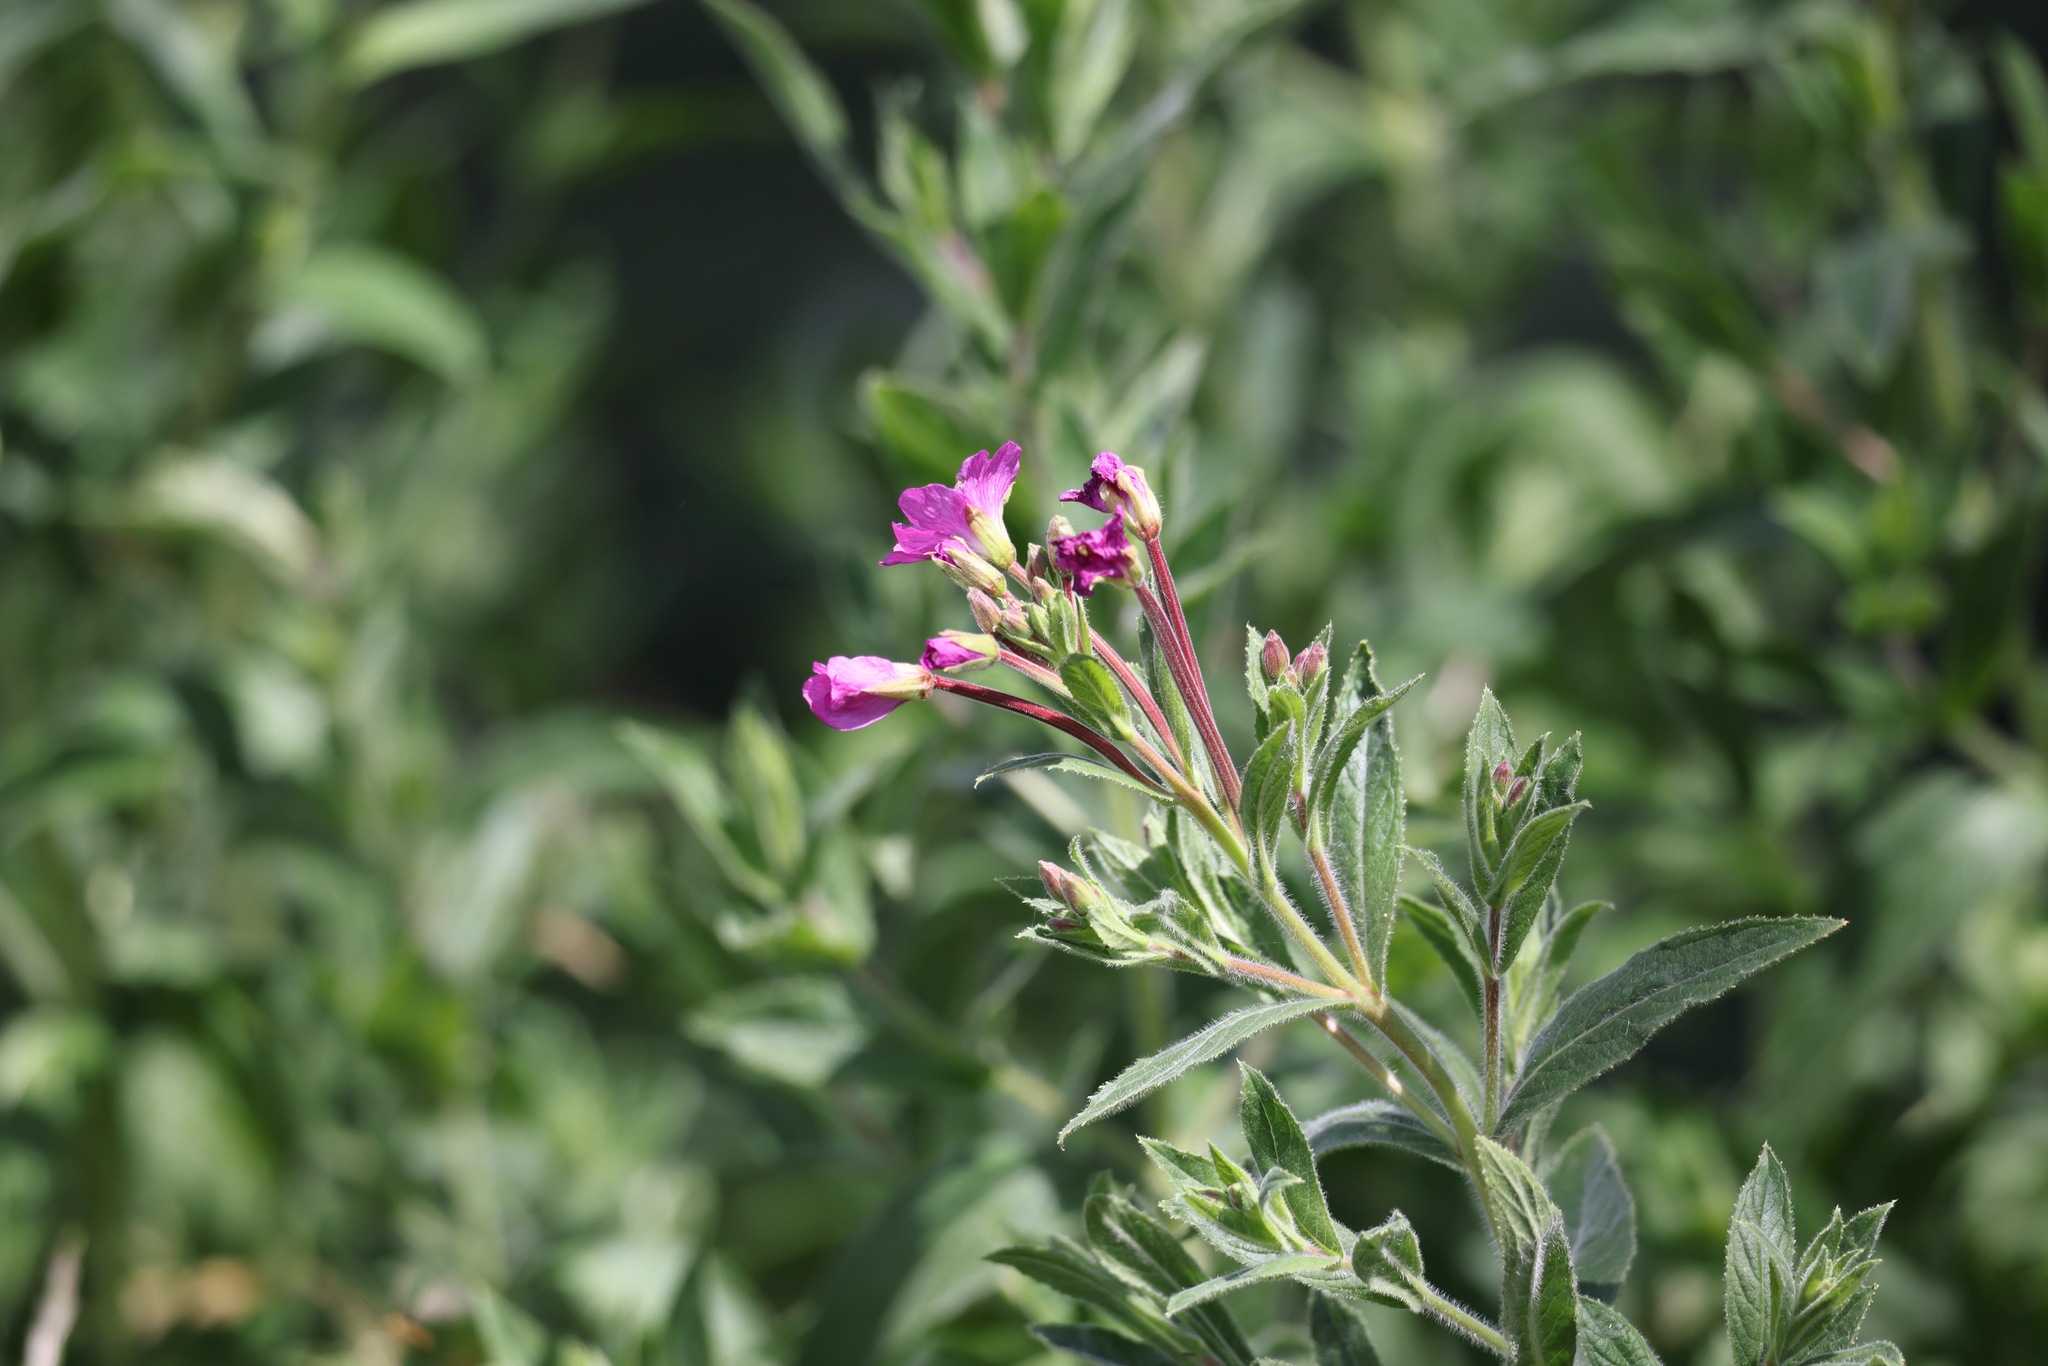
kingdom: Plantae
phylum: Tracheophyta
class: Magnoliopsida
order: Myrtales
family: Onagraceae
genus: Epilobium
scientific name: Epilobium hirsutum
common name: Great willowherb
